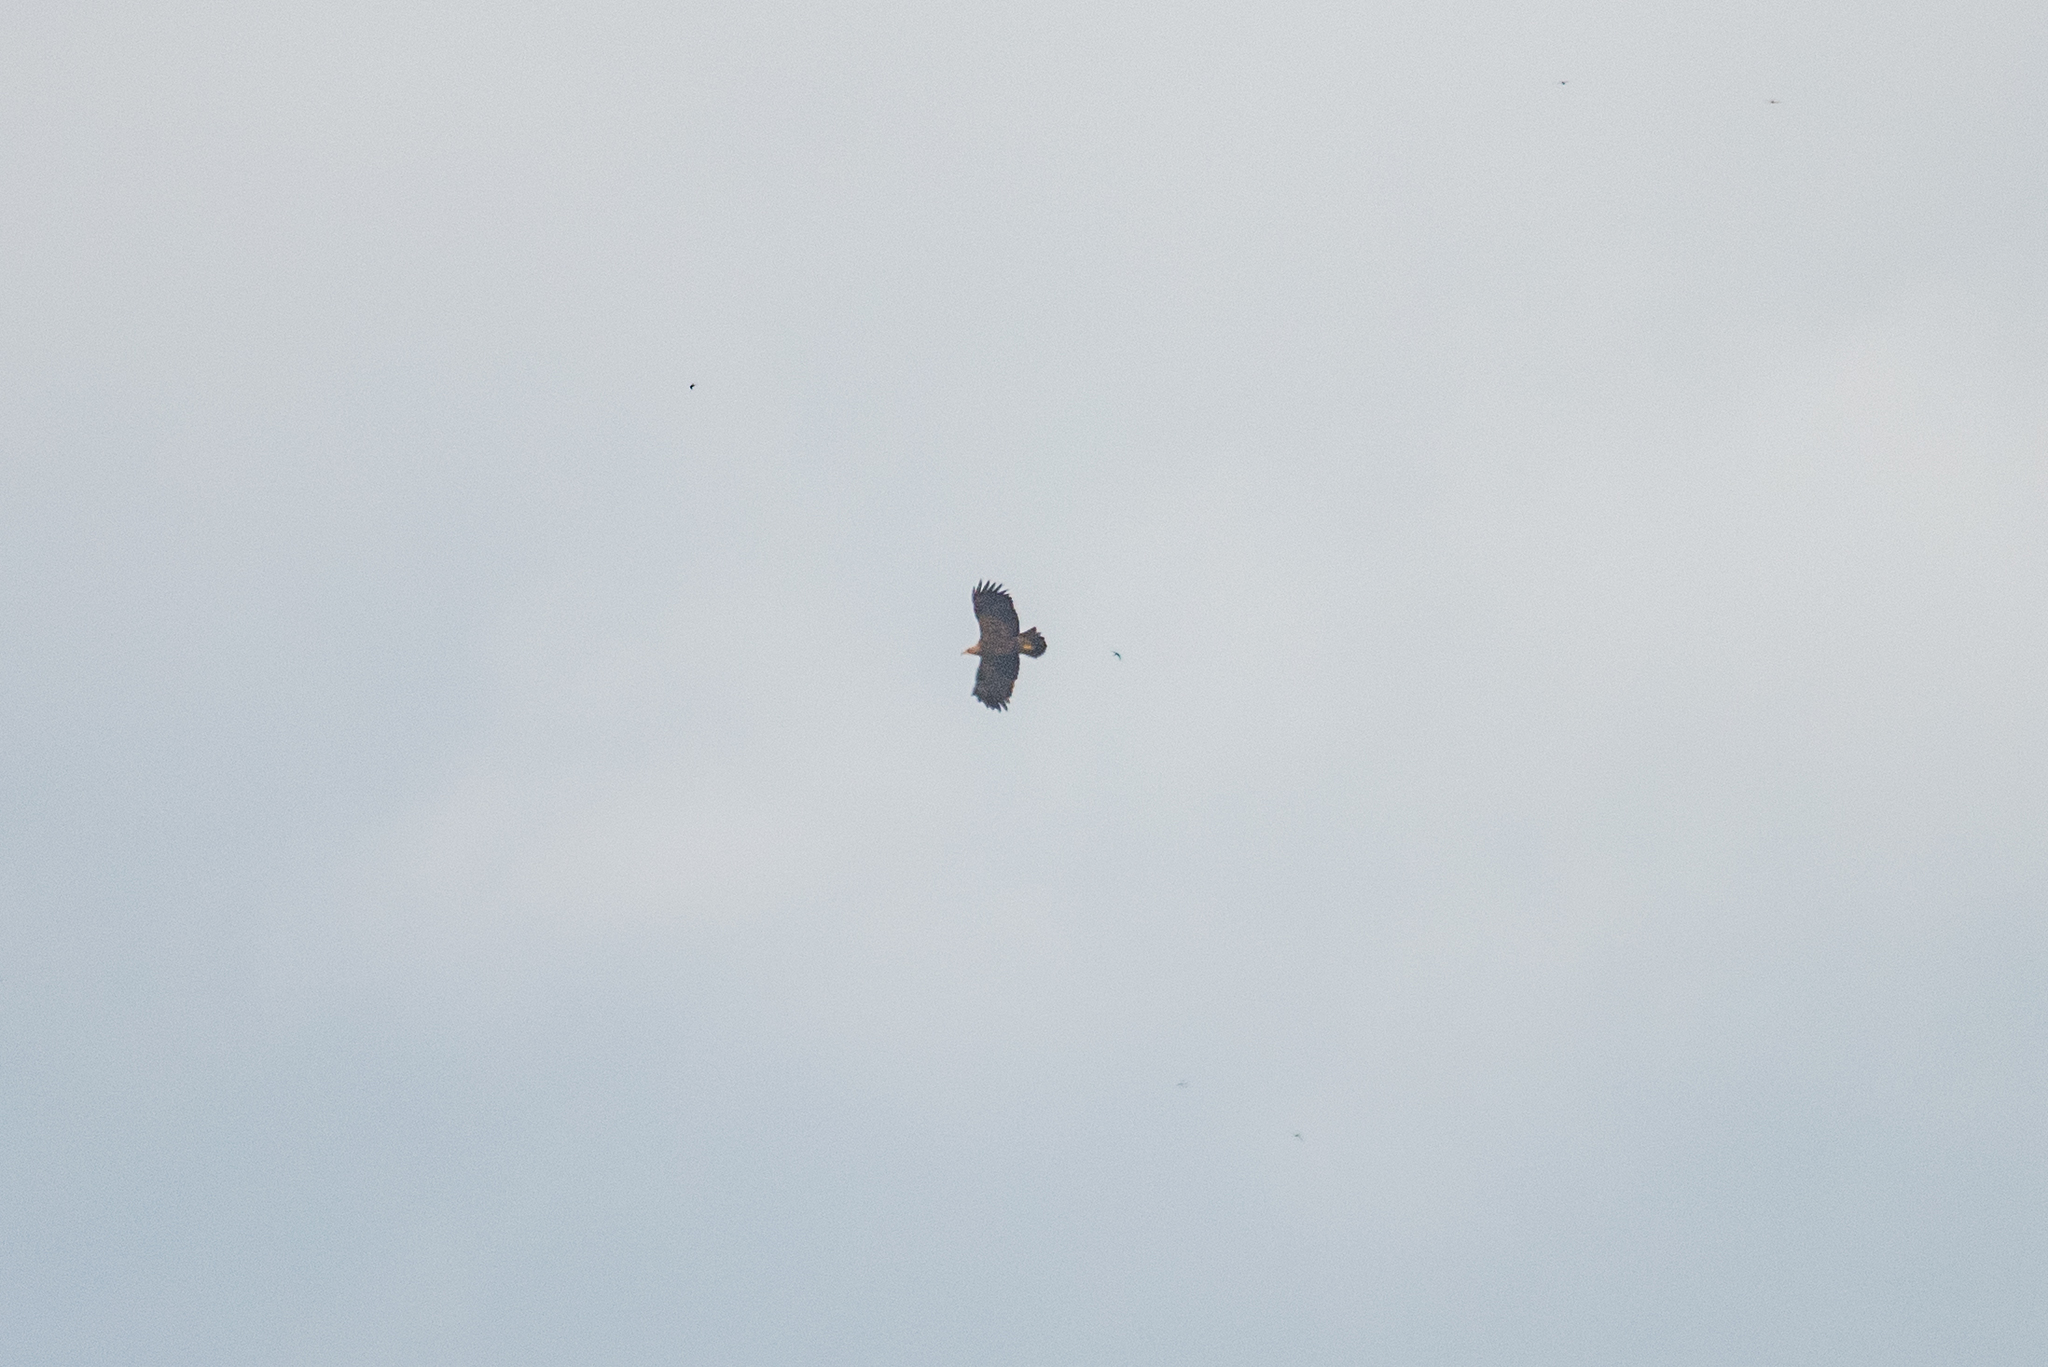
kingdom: Animalia
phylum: Chordata
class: Aves
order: Accipitriformes
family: Accipitridae
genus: Aquila
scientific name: Aquila heliaca
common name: Eastern imperial eagle
